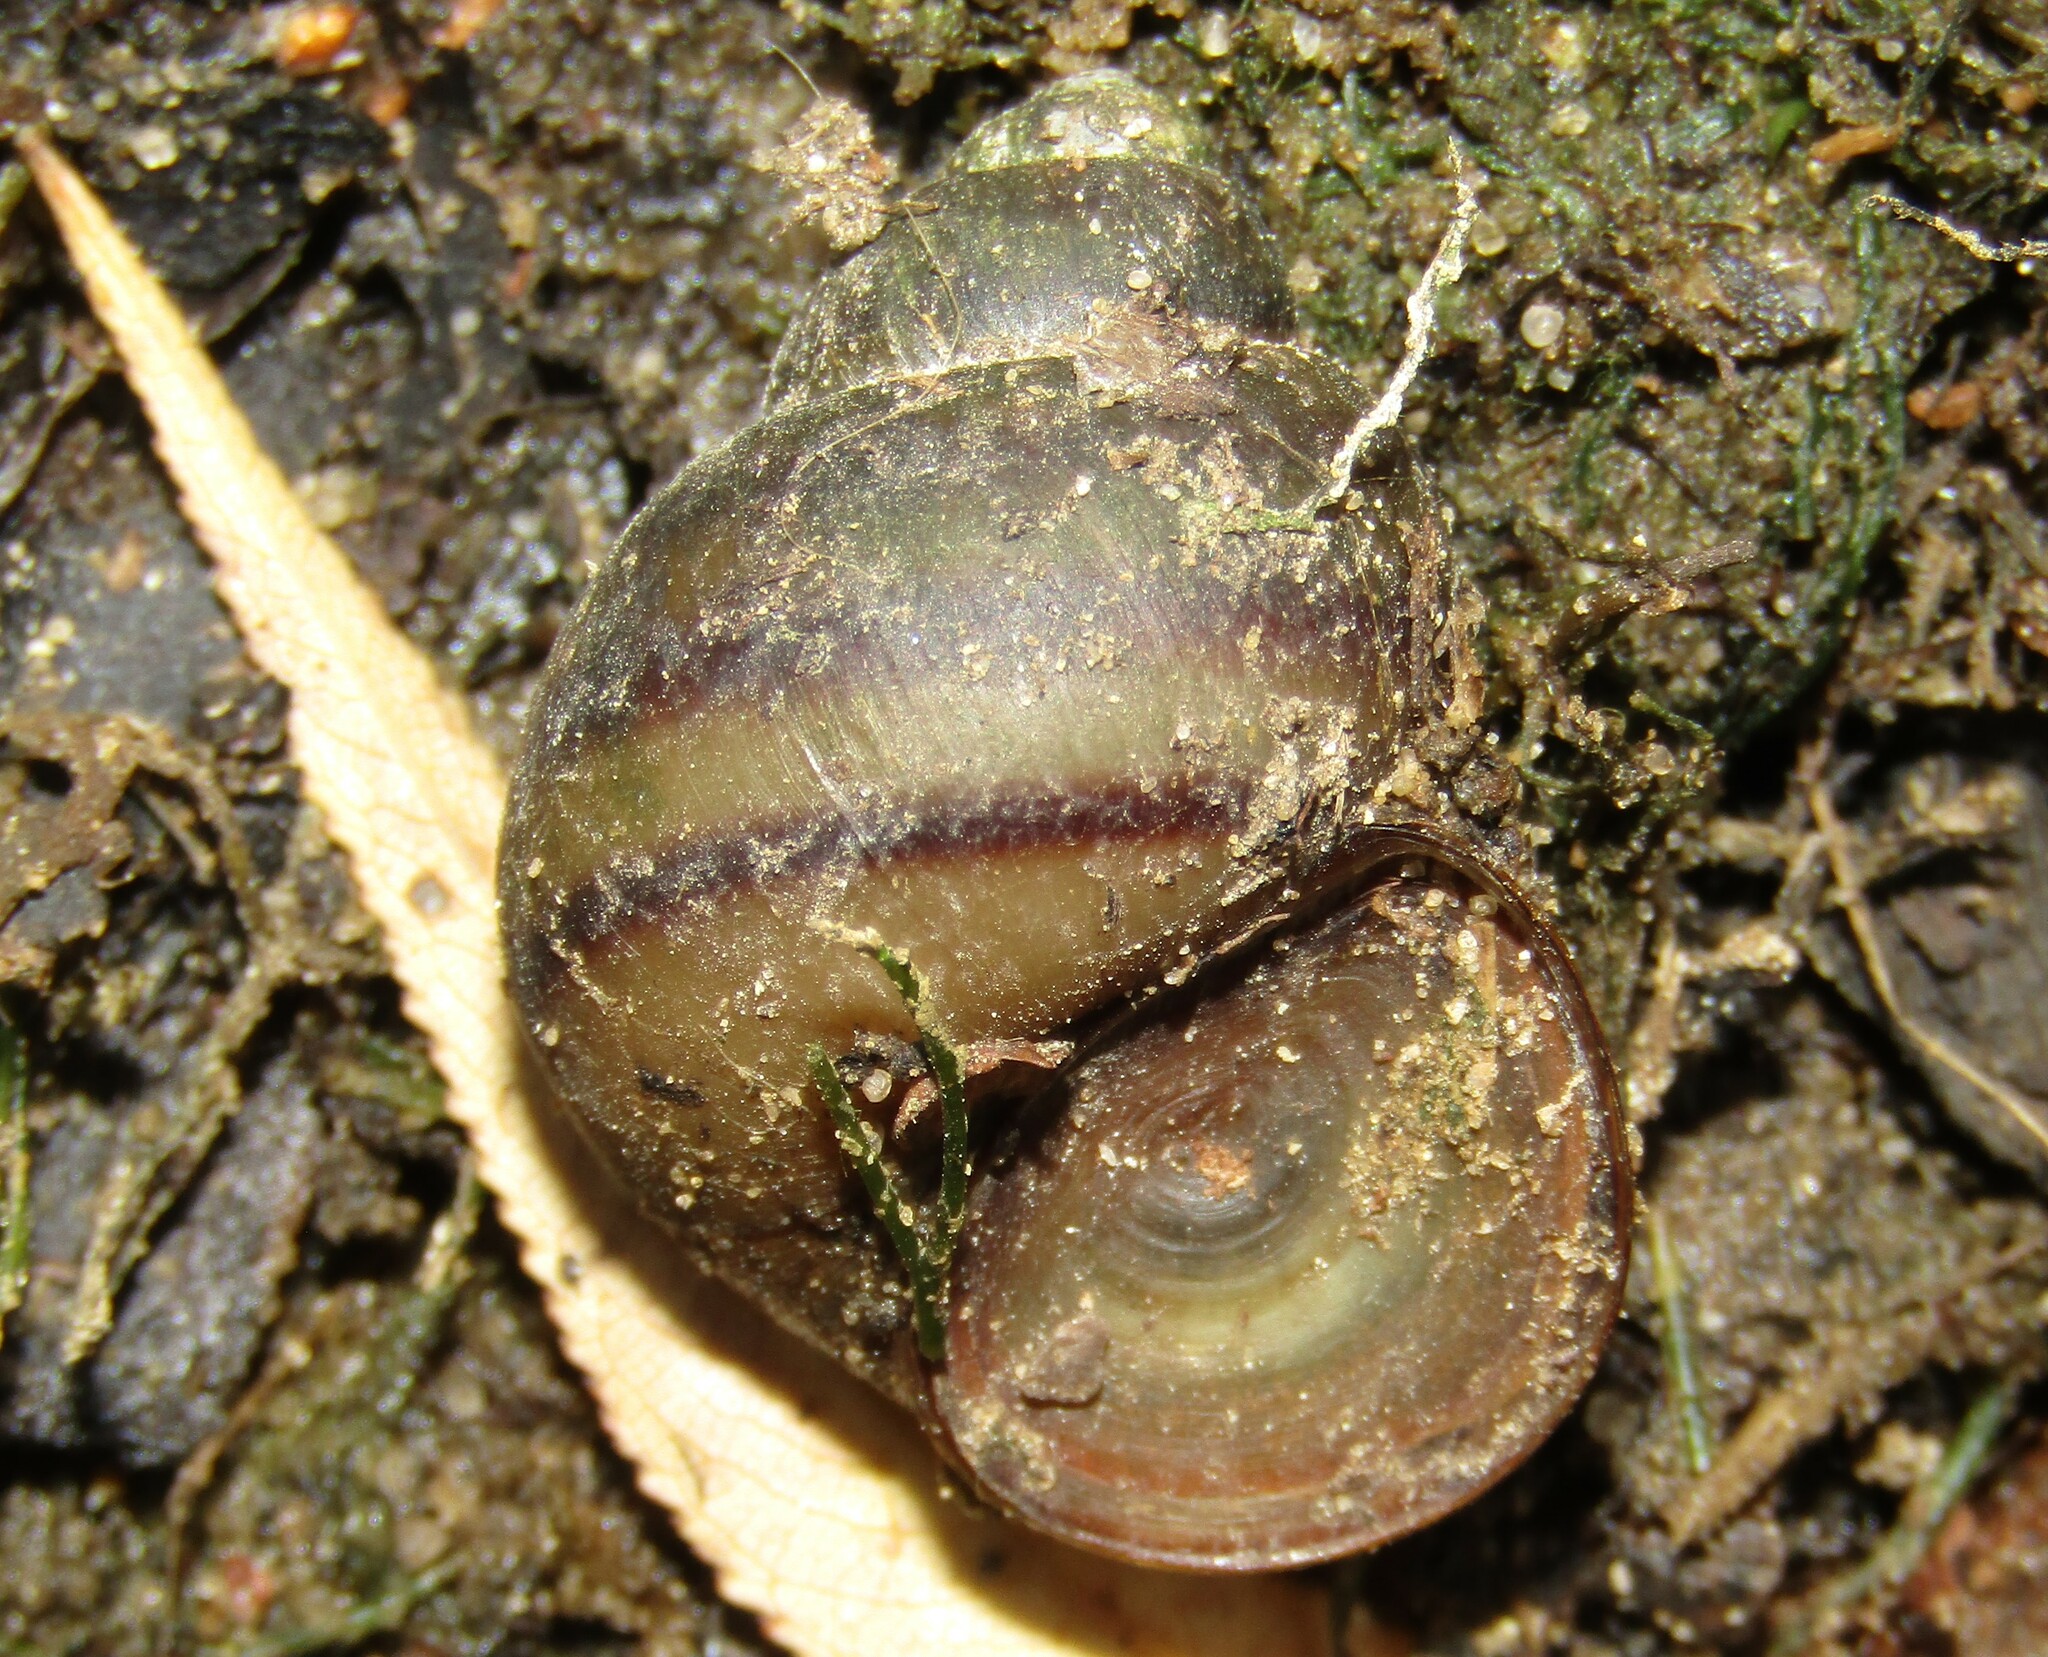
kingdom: Animalia
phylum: Mollusca
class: Gastropoda
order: Architaenioglossa
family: Viviparidae
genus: Viviparus
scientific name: Viviparus viviparus
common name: River snail
